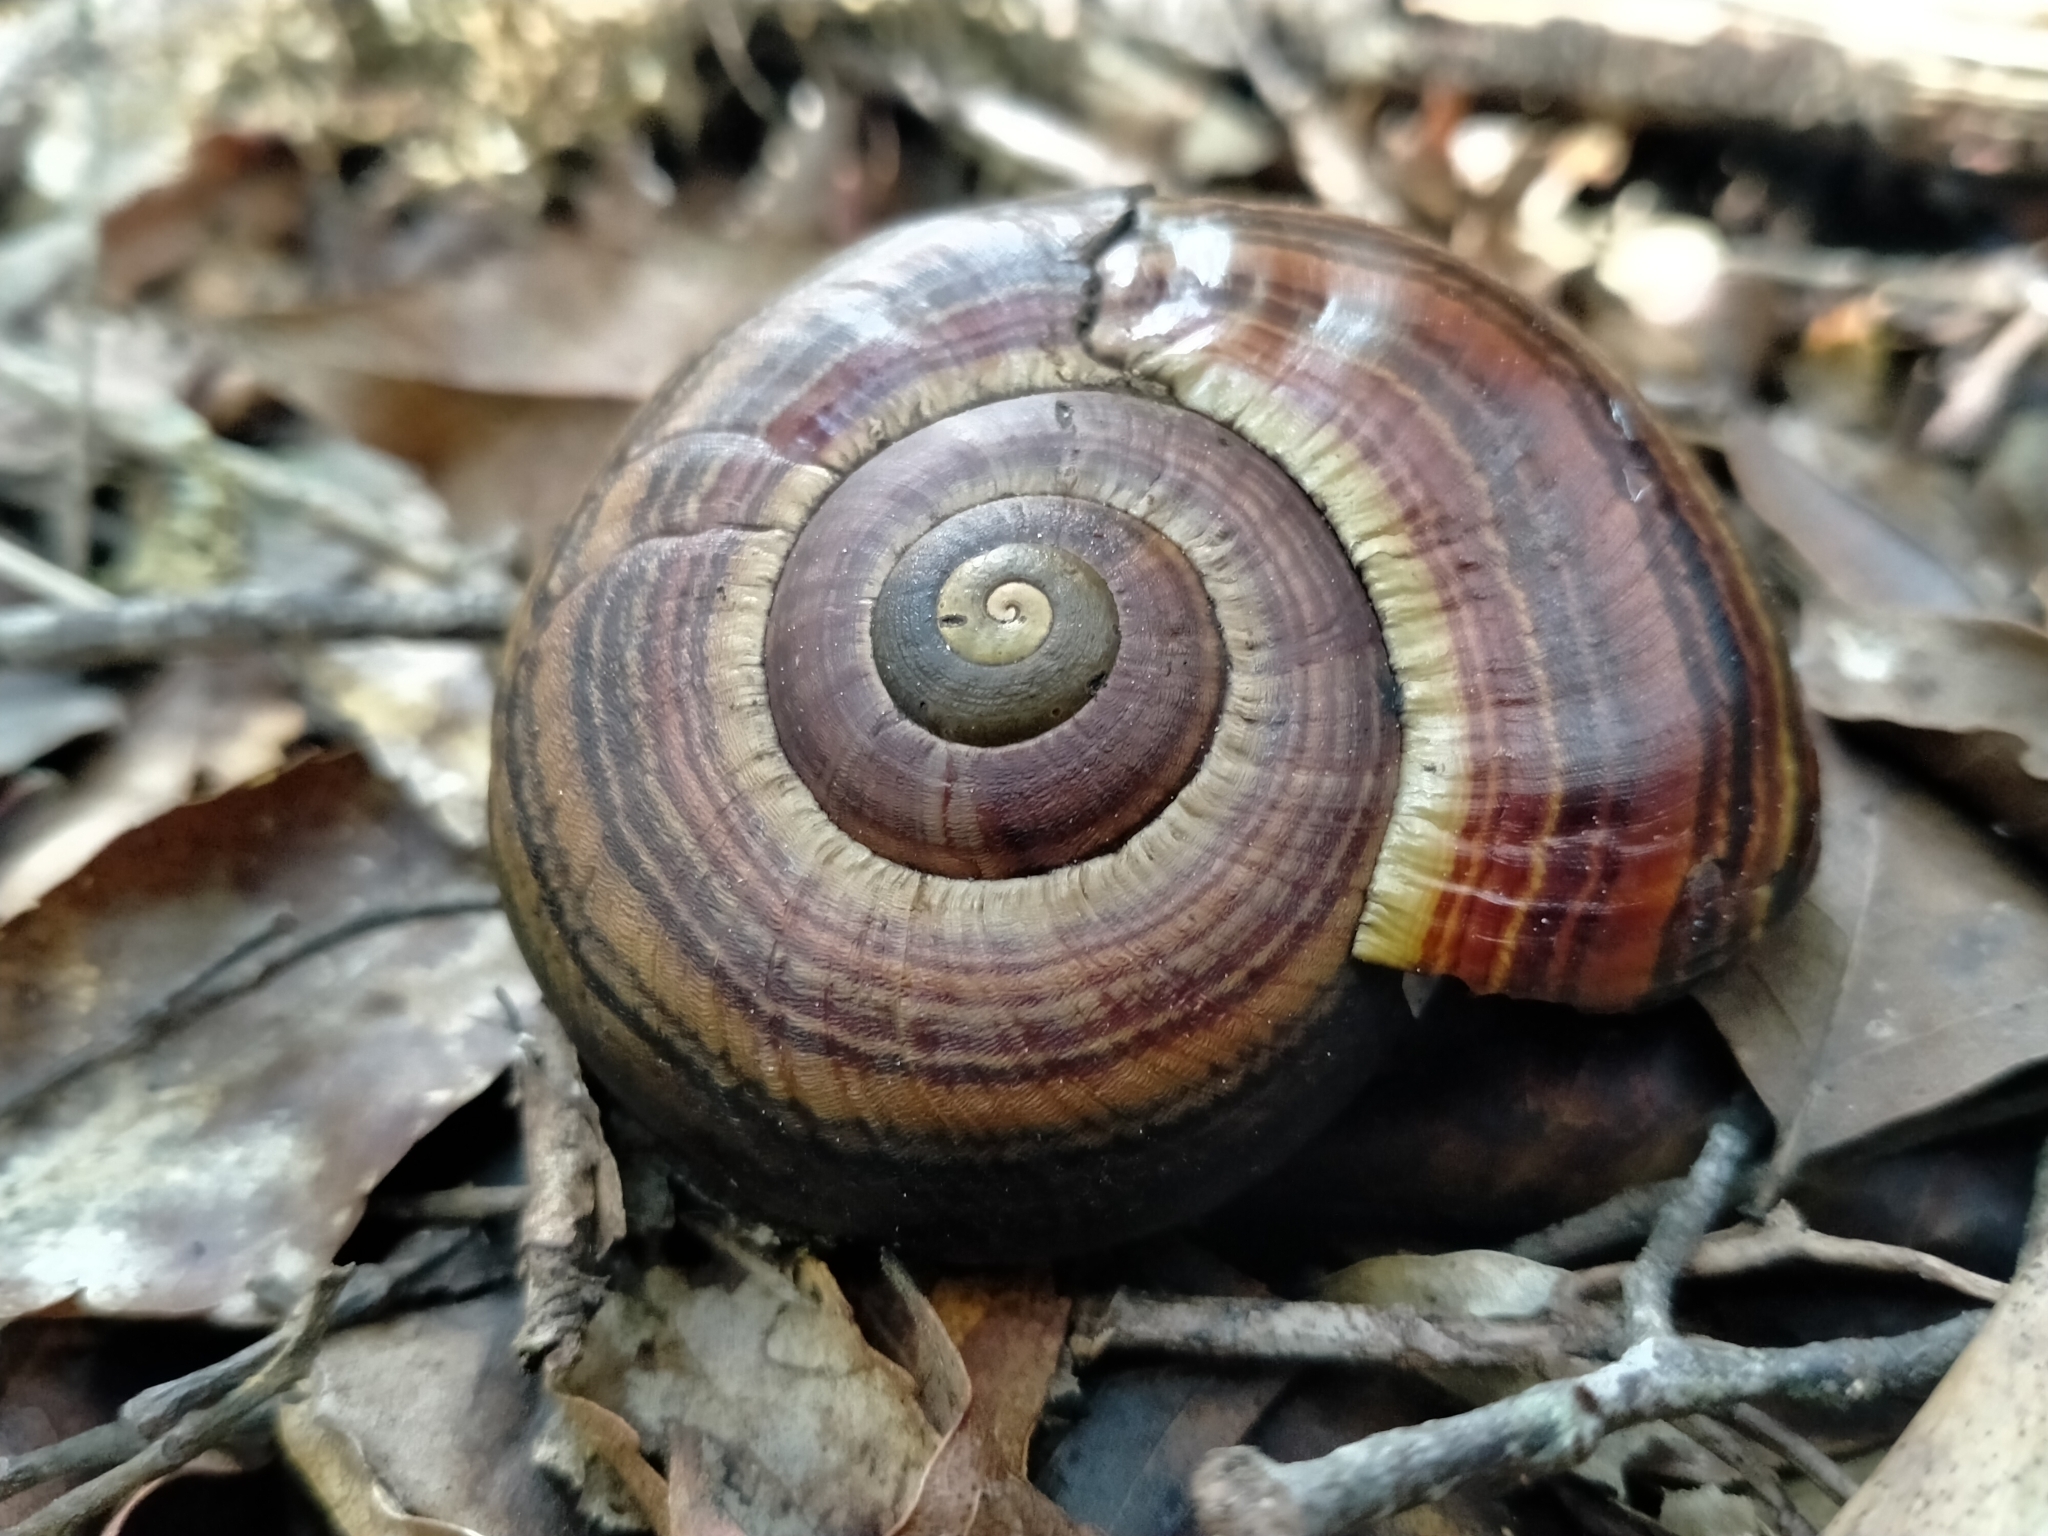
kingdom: Animalia
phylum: Mollusca
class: Gastropoda
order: Stylommatophora
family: Rhytididae
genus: Powelliphanta
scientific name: Powelliphanta hochstetteri
